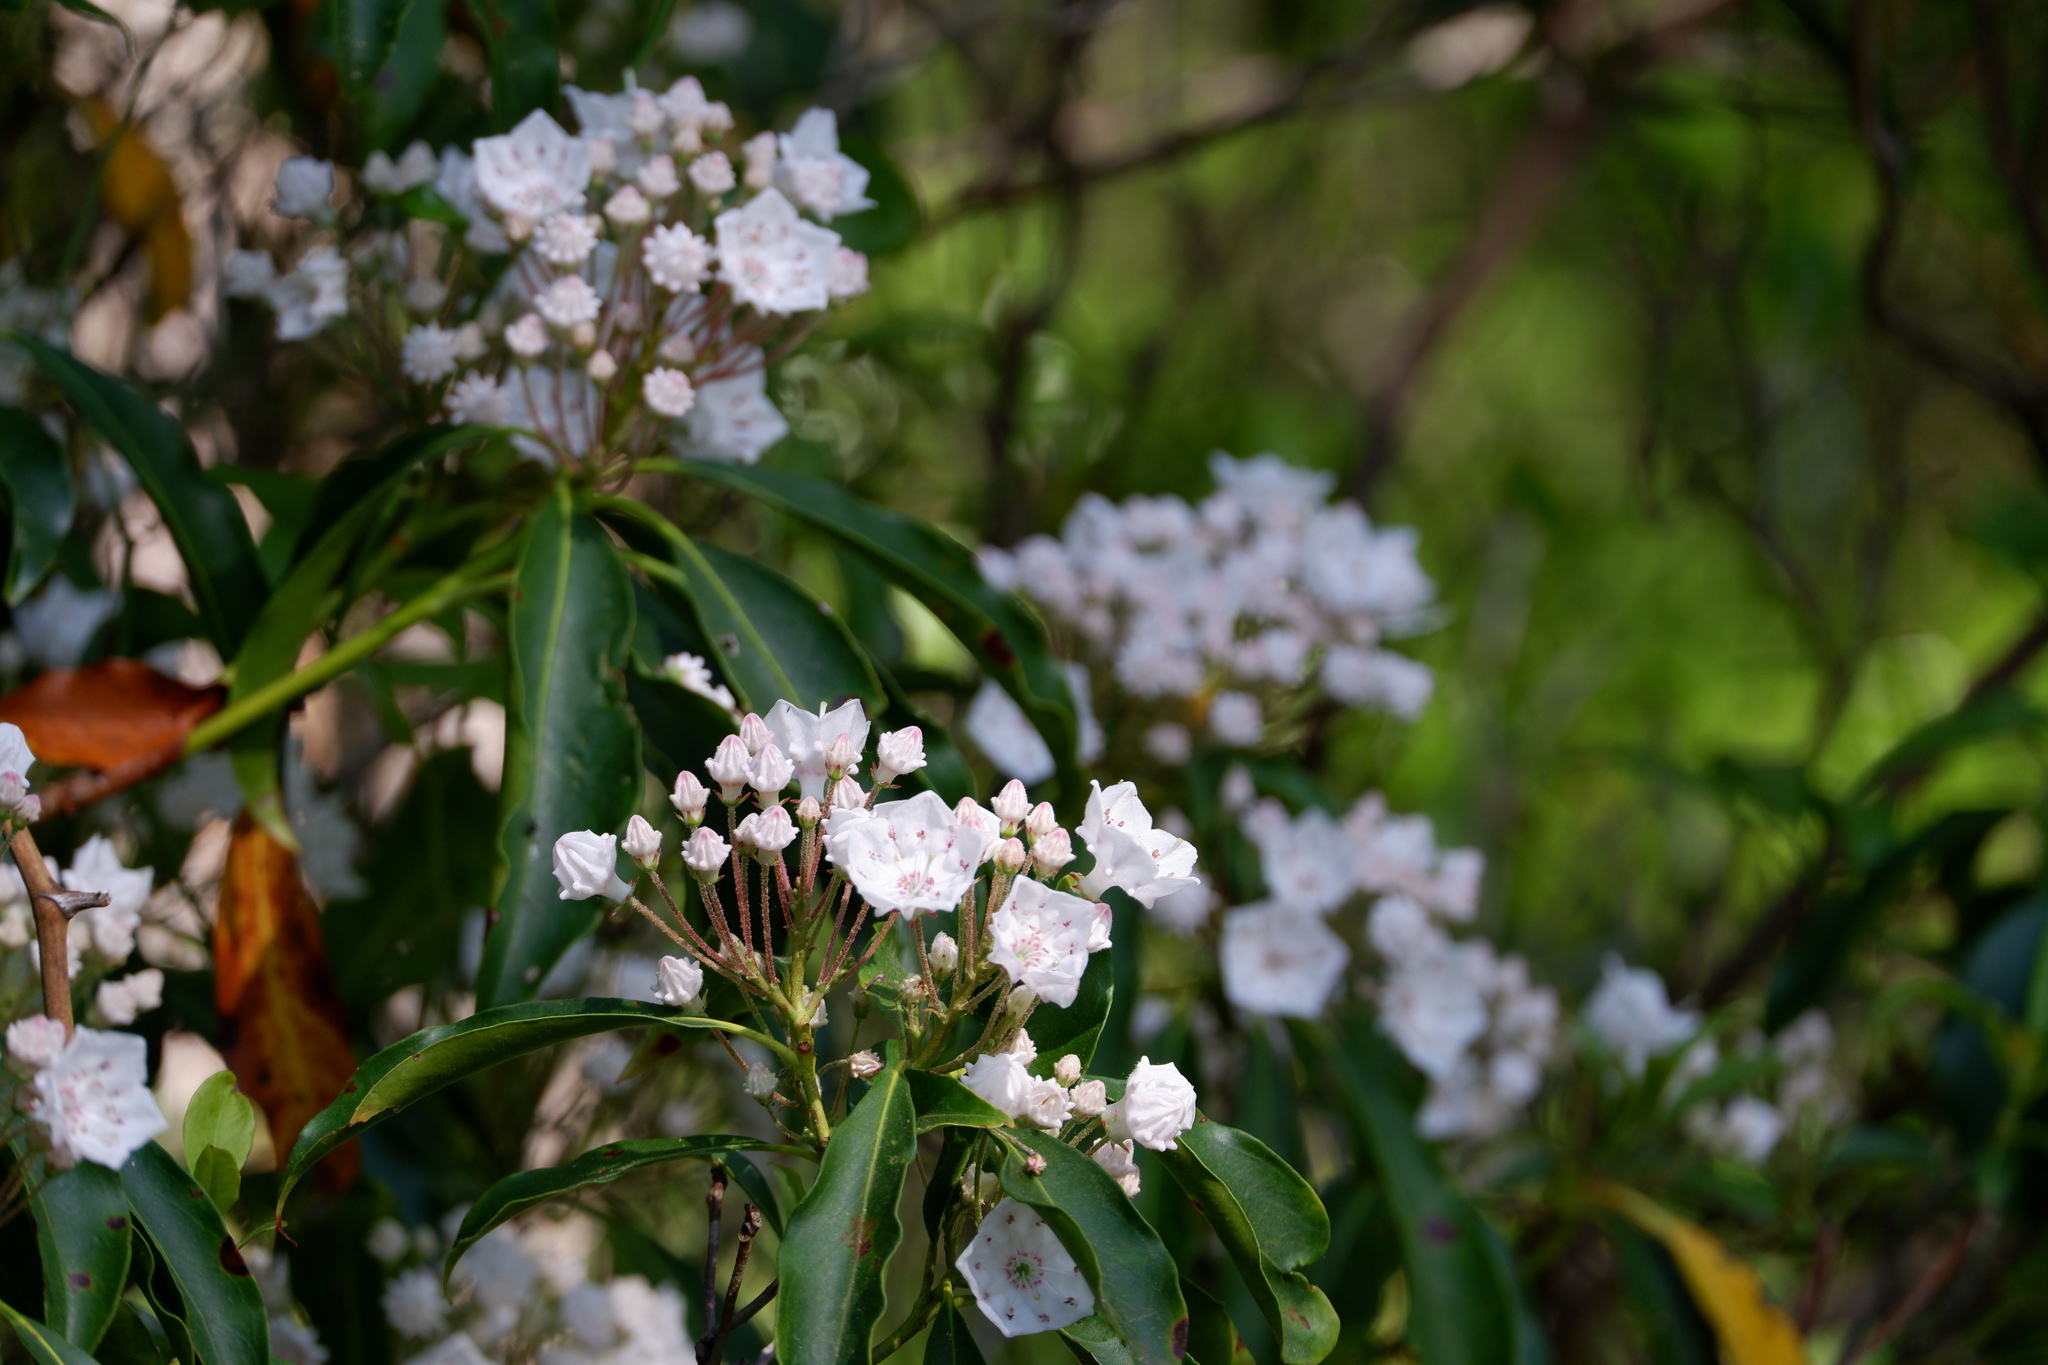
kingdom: Plantae
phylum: Tracheophyta
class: Magnoliopsida
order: Ericales
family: Ericaceae
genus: Kalmia
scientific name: Kalmia latifolia
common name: Mountain-laurel
